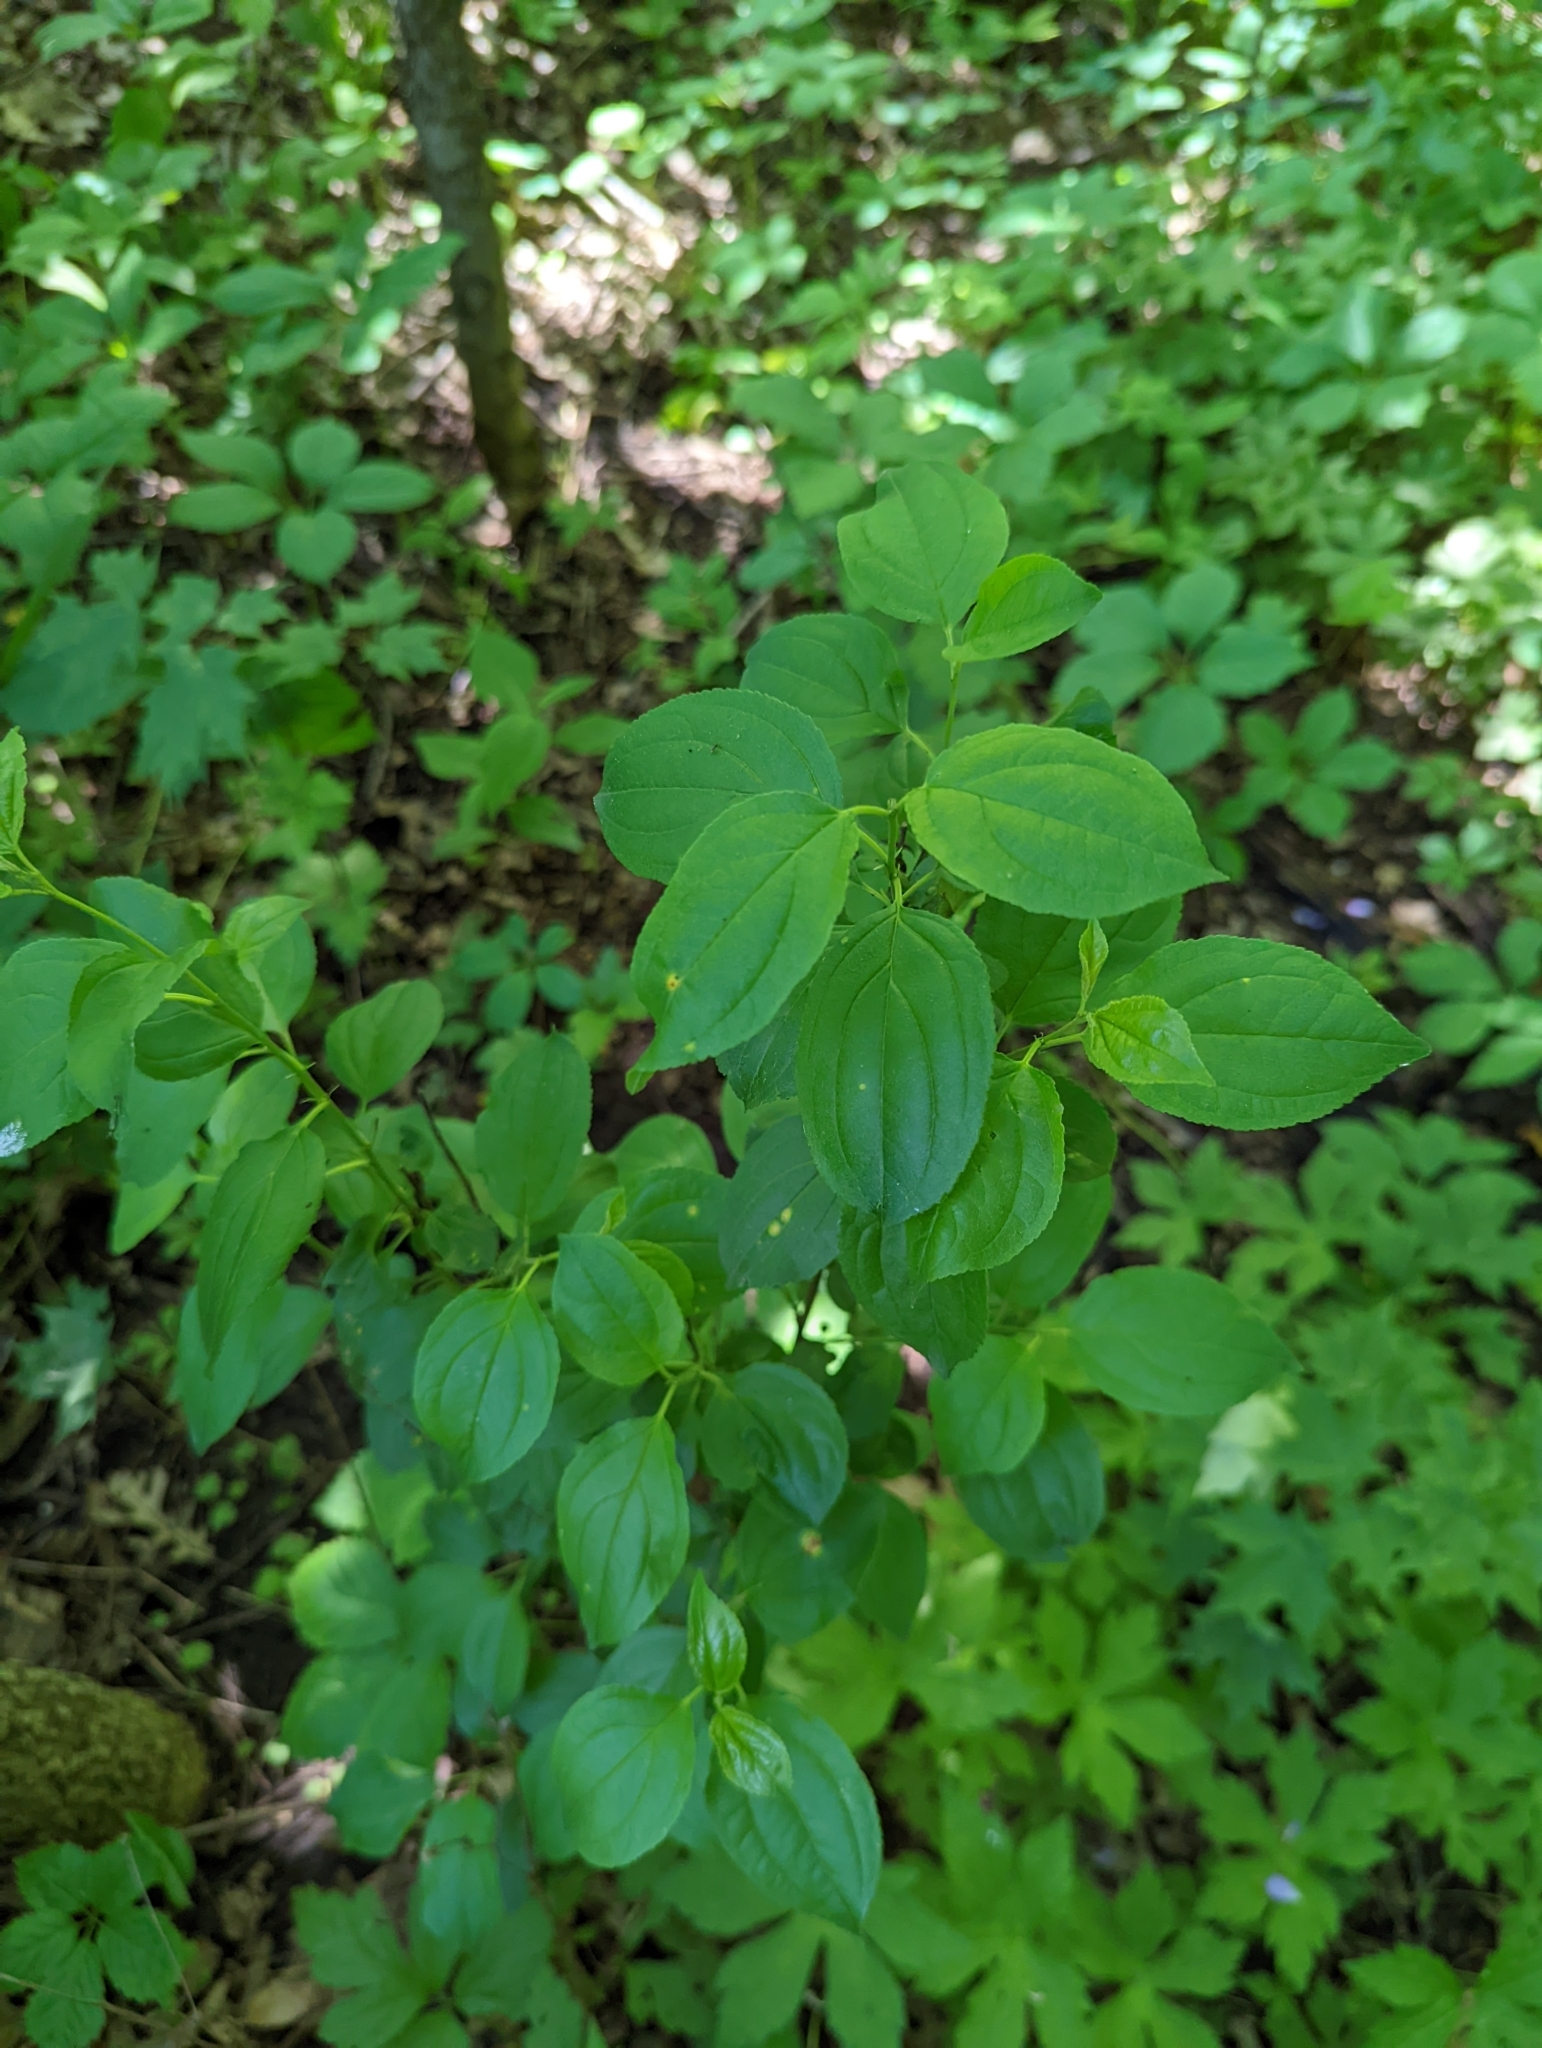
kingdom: Plantae
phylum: Tracheophyta
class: Magnoliopsida
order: Rosales
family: Rhamnaceae
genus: Rhamnus
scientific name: Rhamnus cathartica
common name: Common buckthorn
